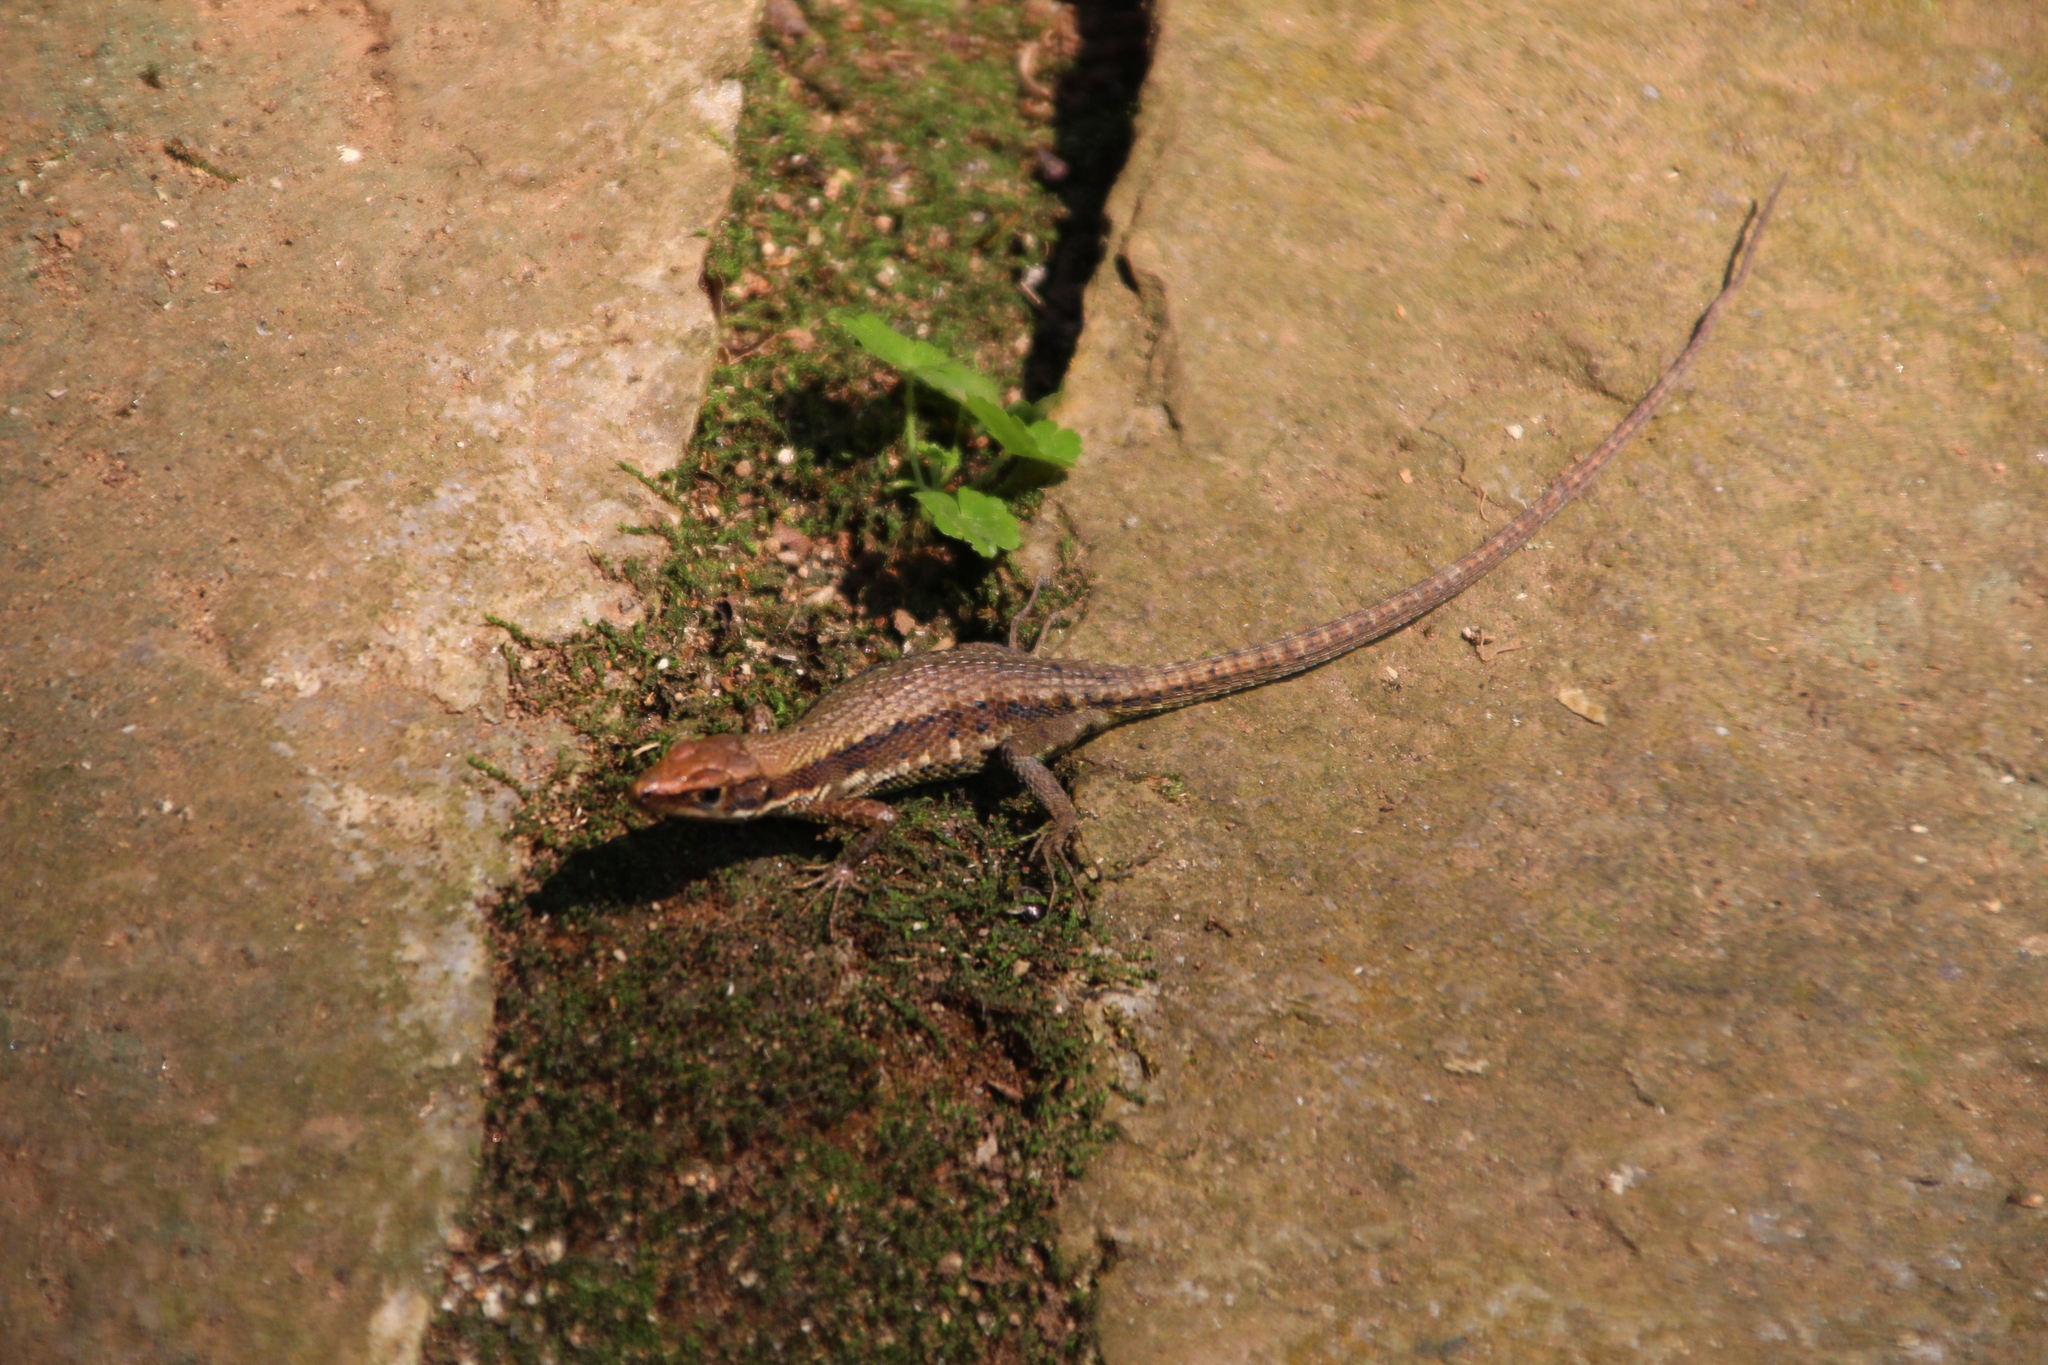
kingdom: Animalia
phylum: Chordata
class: Squamata
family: Lacertidae
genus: Adolfus
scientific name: Adolfus africanus
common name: Green-bellied forest lizard
